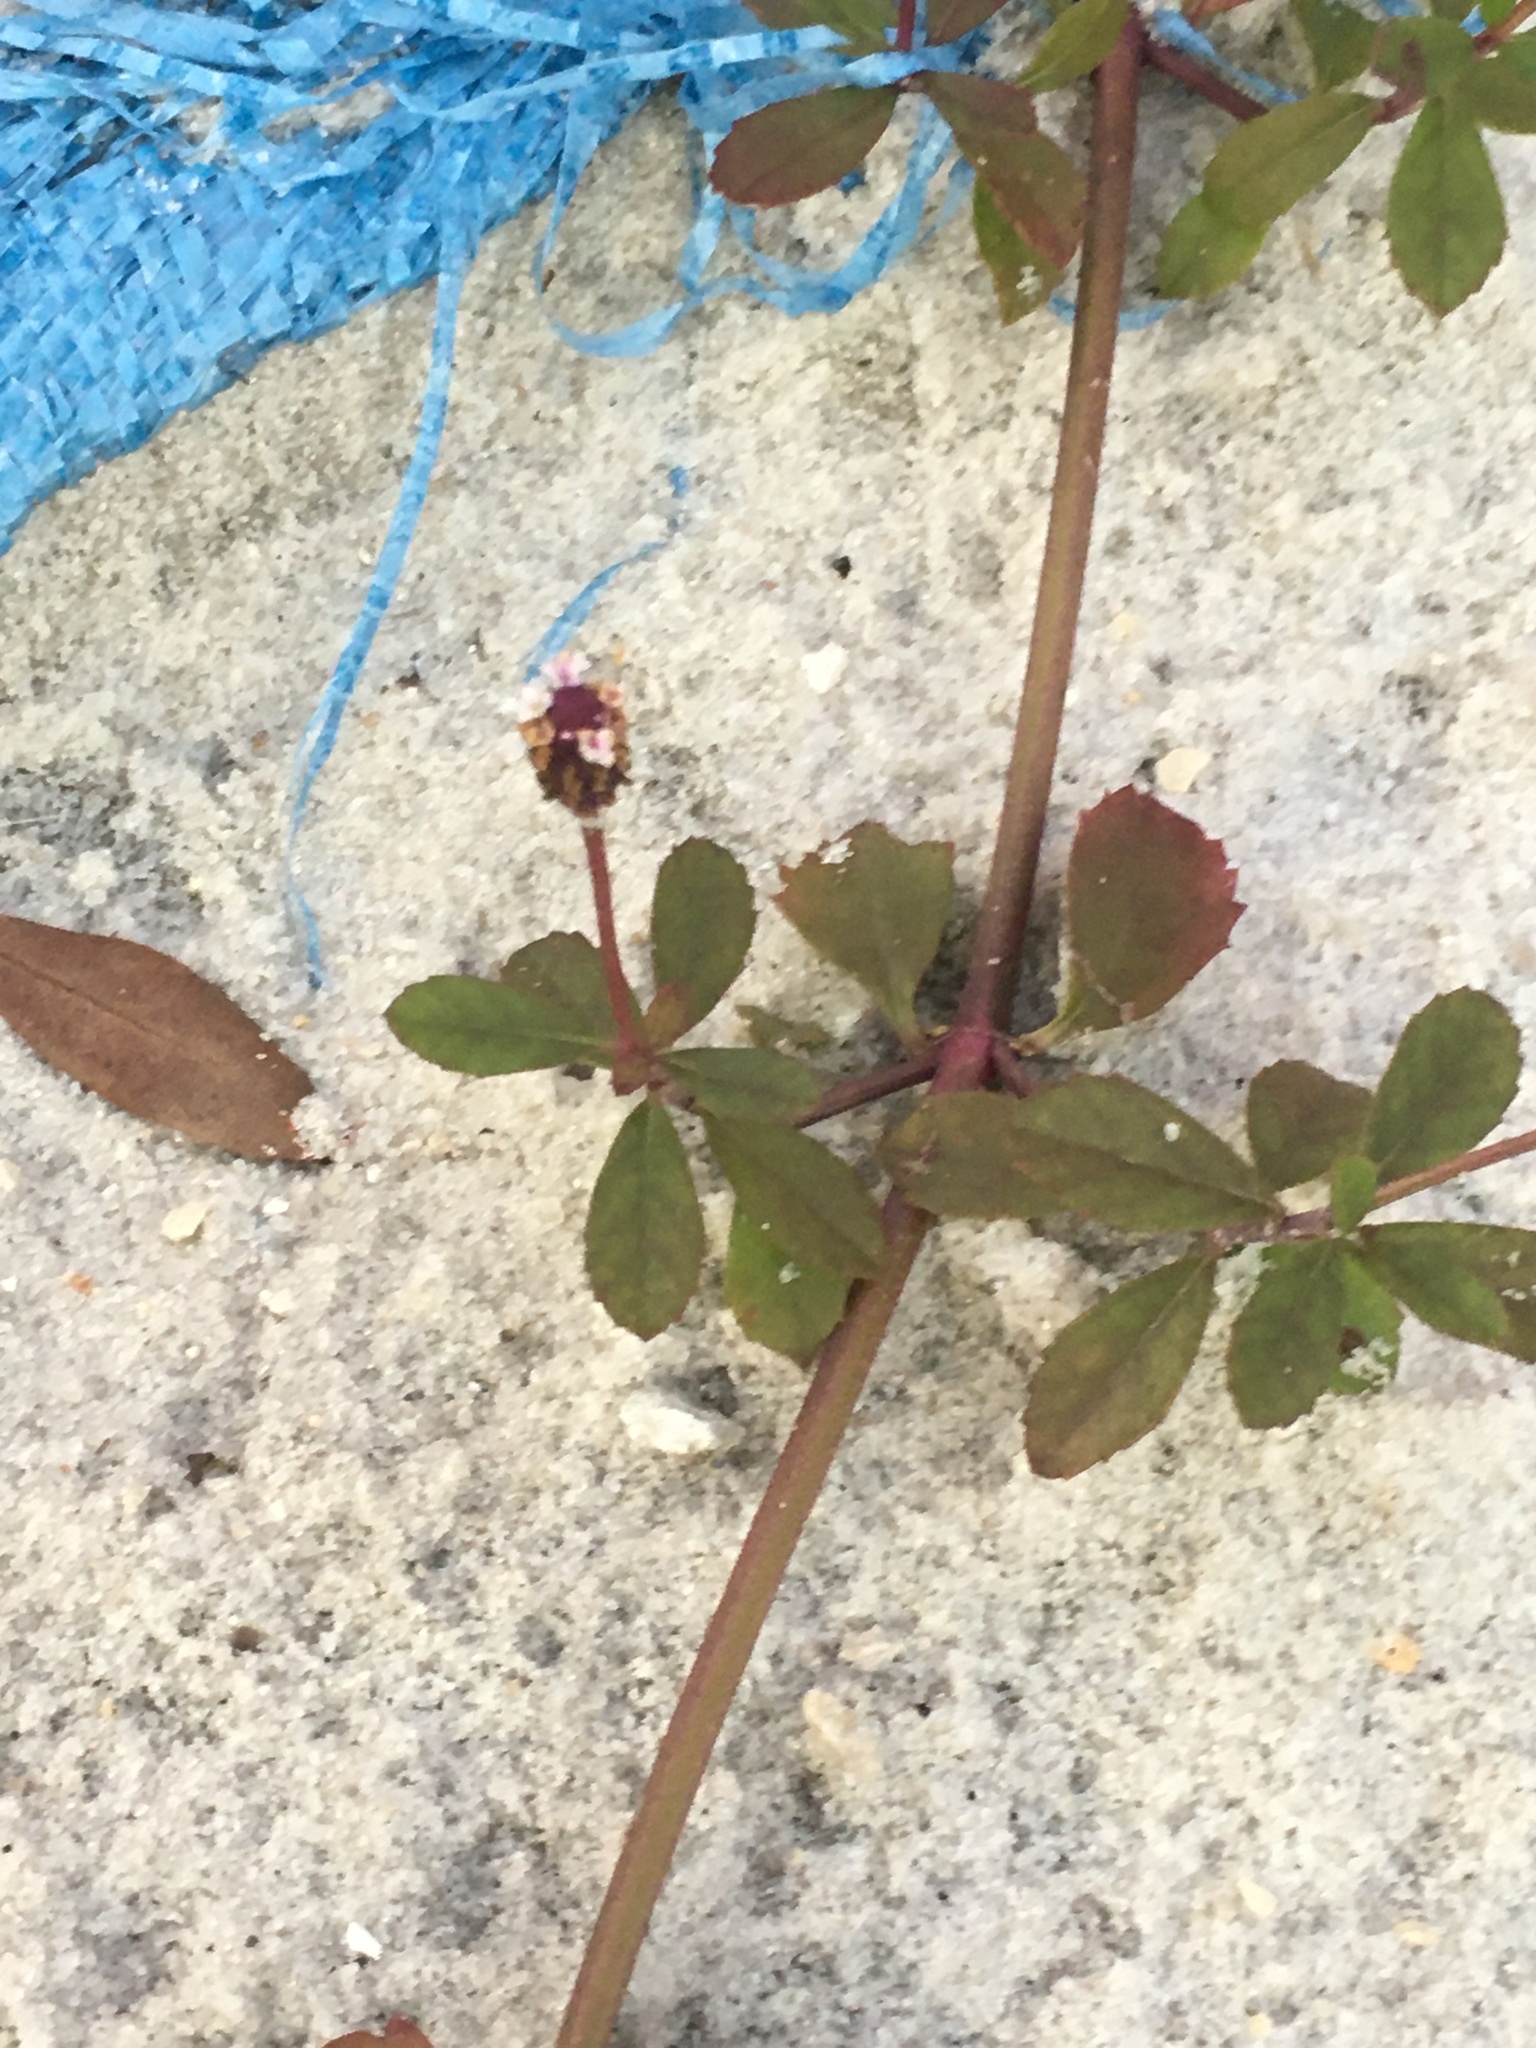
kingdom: Plantae
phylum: Tracheophyta
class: Magnoliopsida
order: Lamiales
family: Verbenaceae
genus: Phyla
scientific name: Phyla nodiflora
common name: Frogfruit
